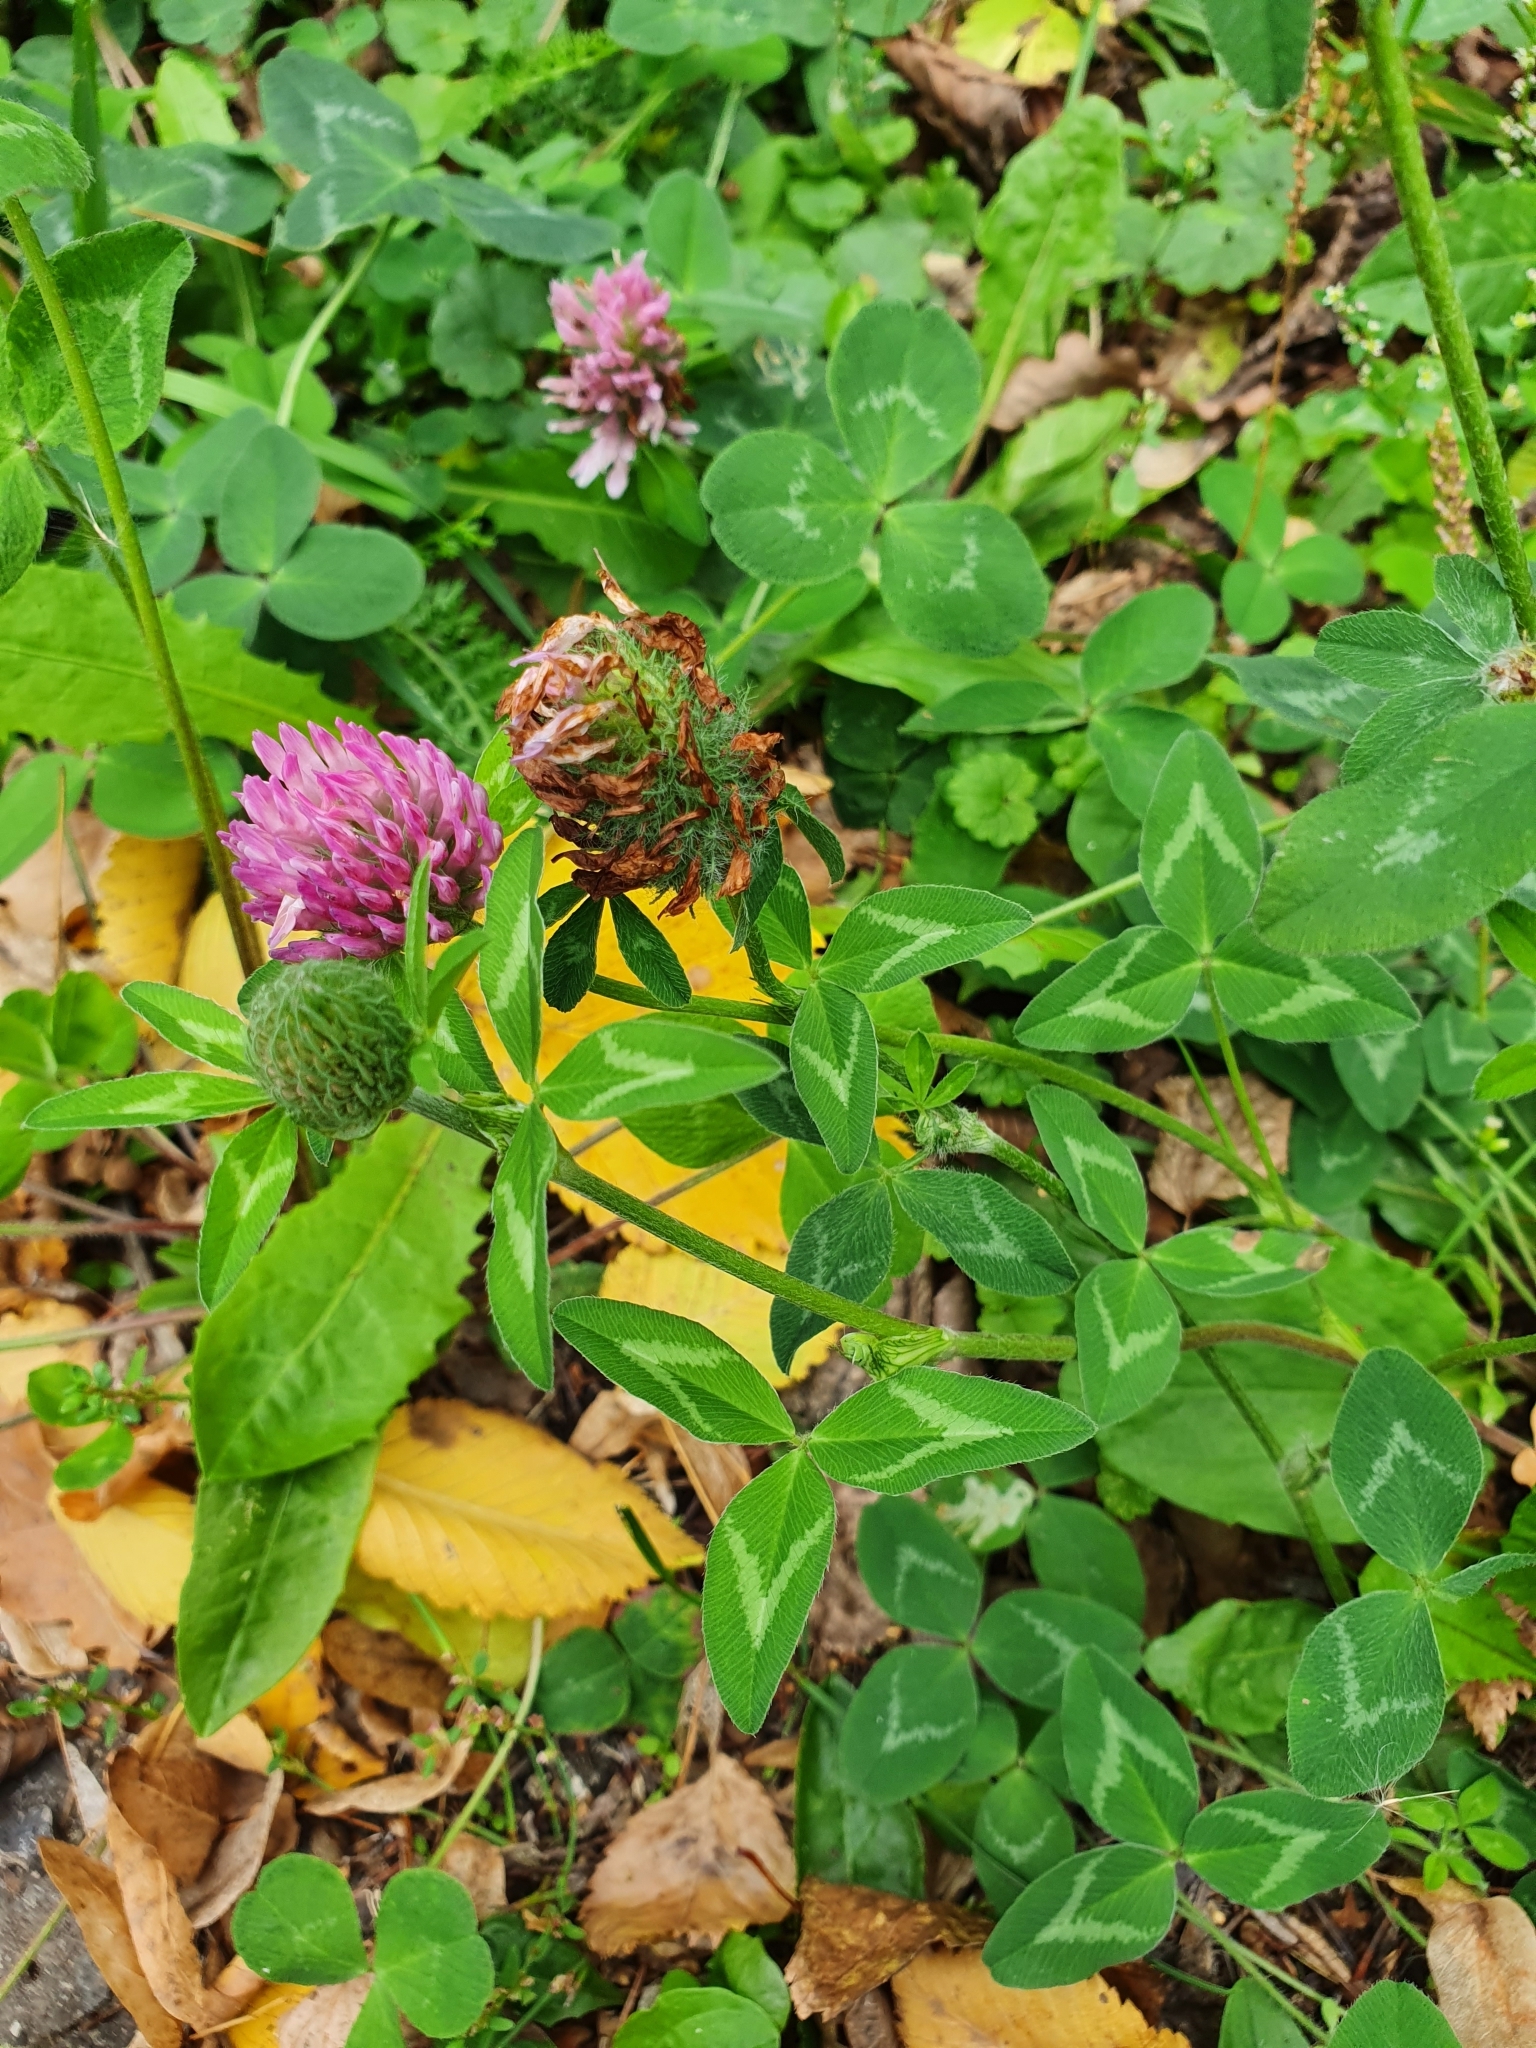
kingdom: Plantae
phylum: Tracheophyta
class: Magnoliopsida
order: Fabales
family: Fabaceae
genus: Trifolium
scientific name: Trifolium pratense
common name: Red clover
